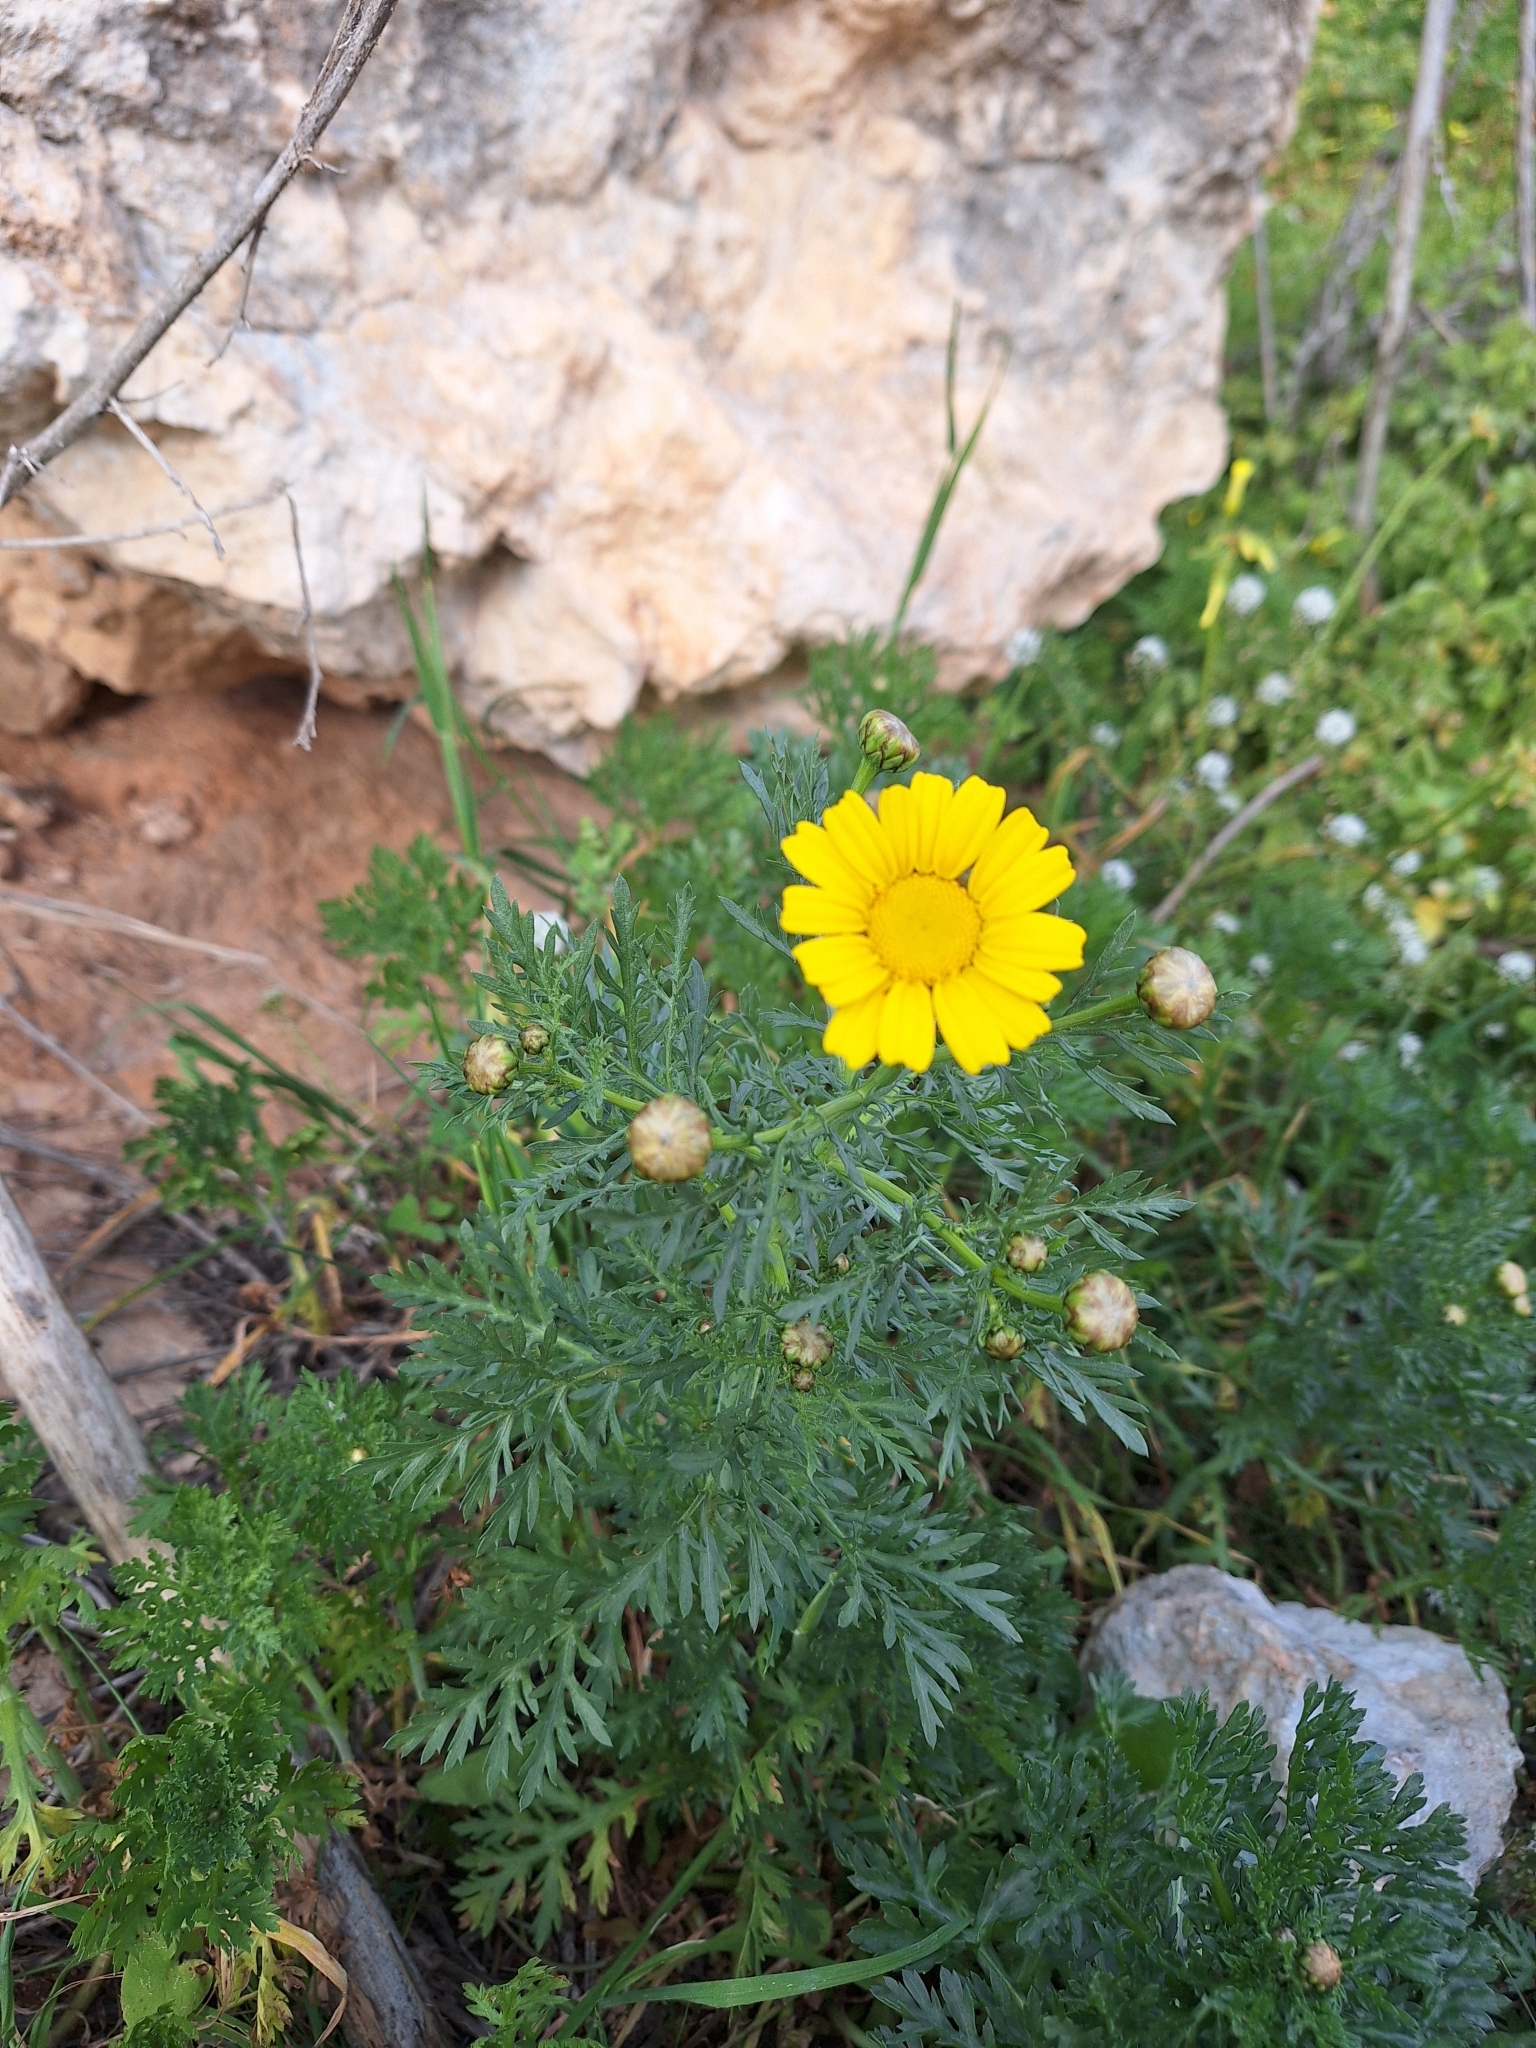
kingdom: Plantae
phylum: Tracheophyta
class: Magnoliopsida
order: Asterales
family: Asteraceae
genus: Glebionis
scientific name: Glebionis coronaria
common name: Crowndaisy
